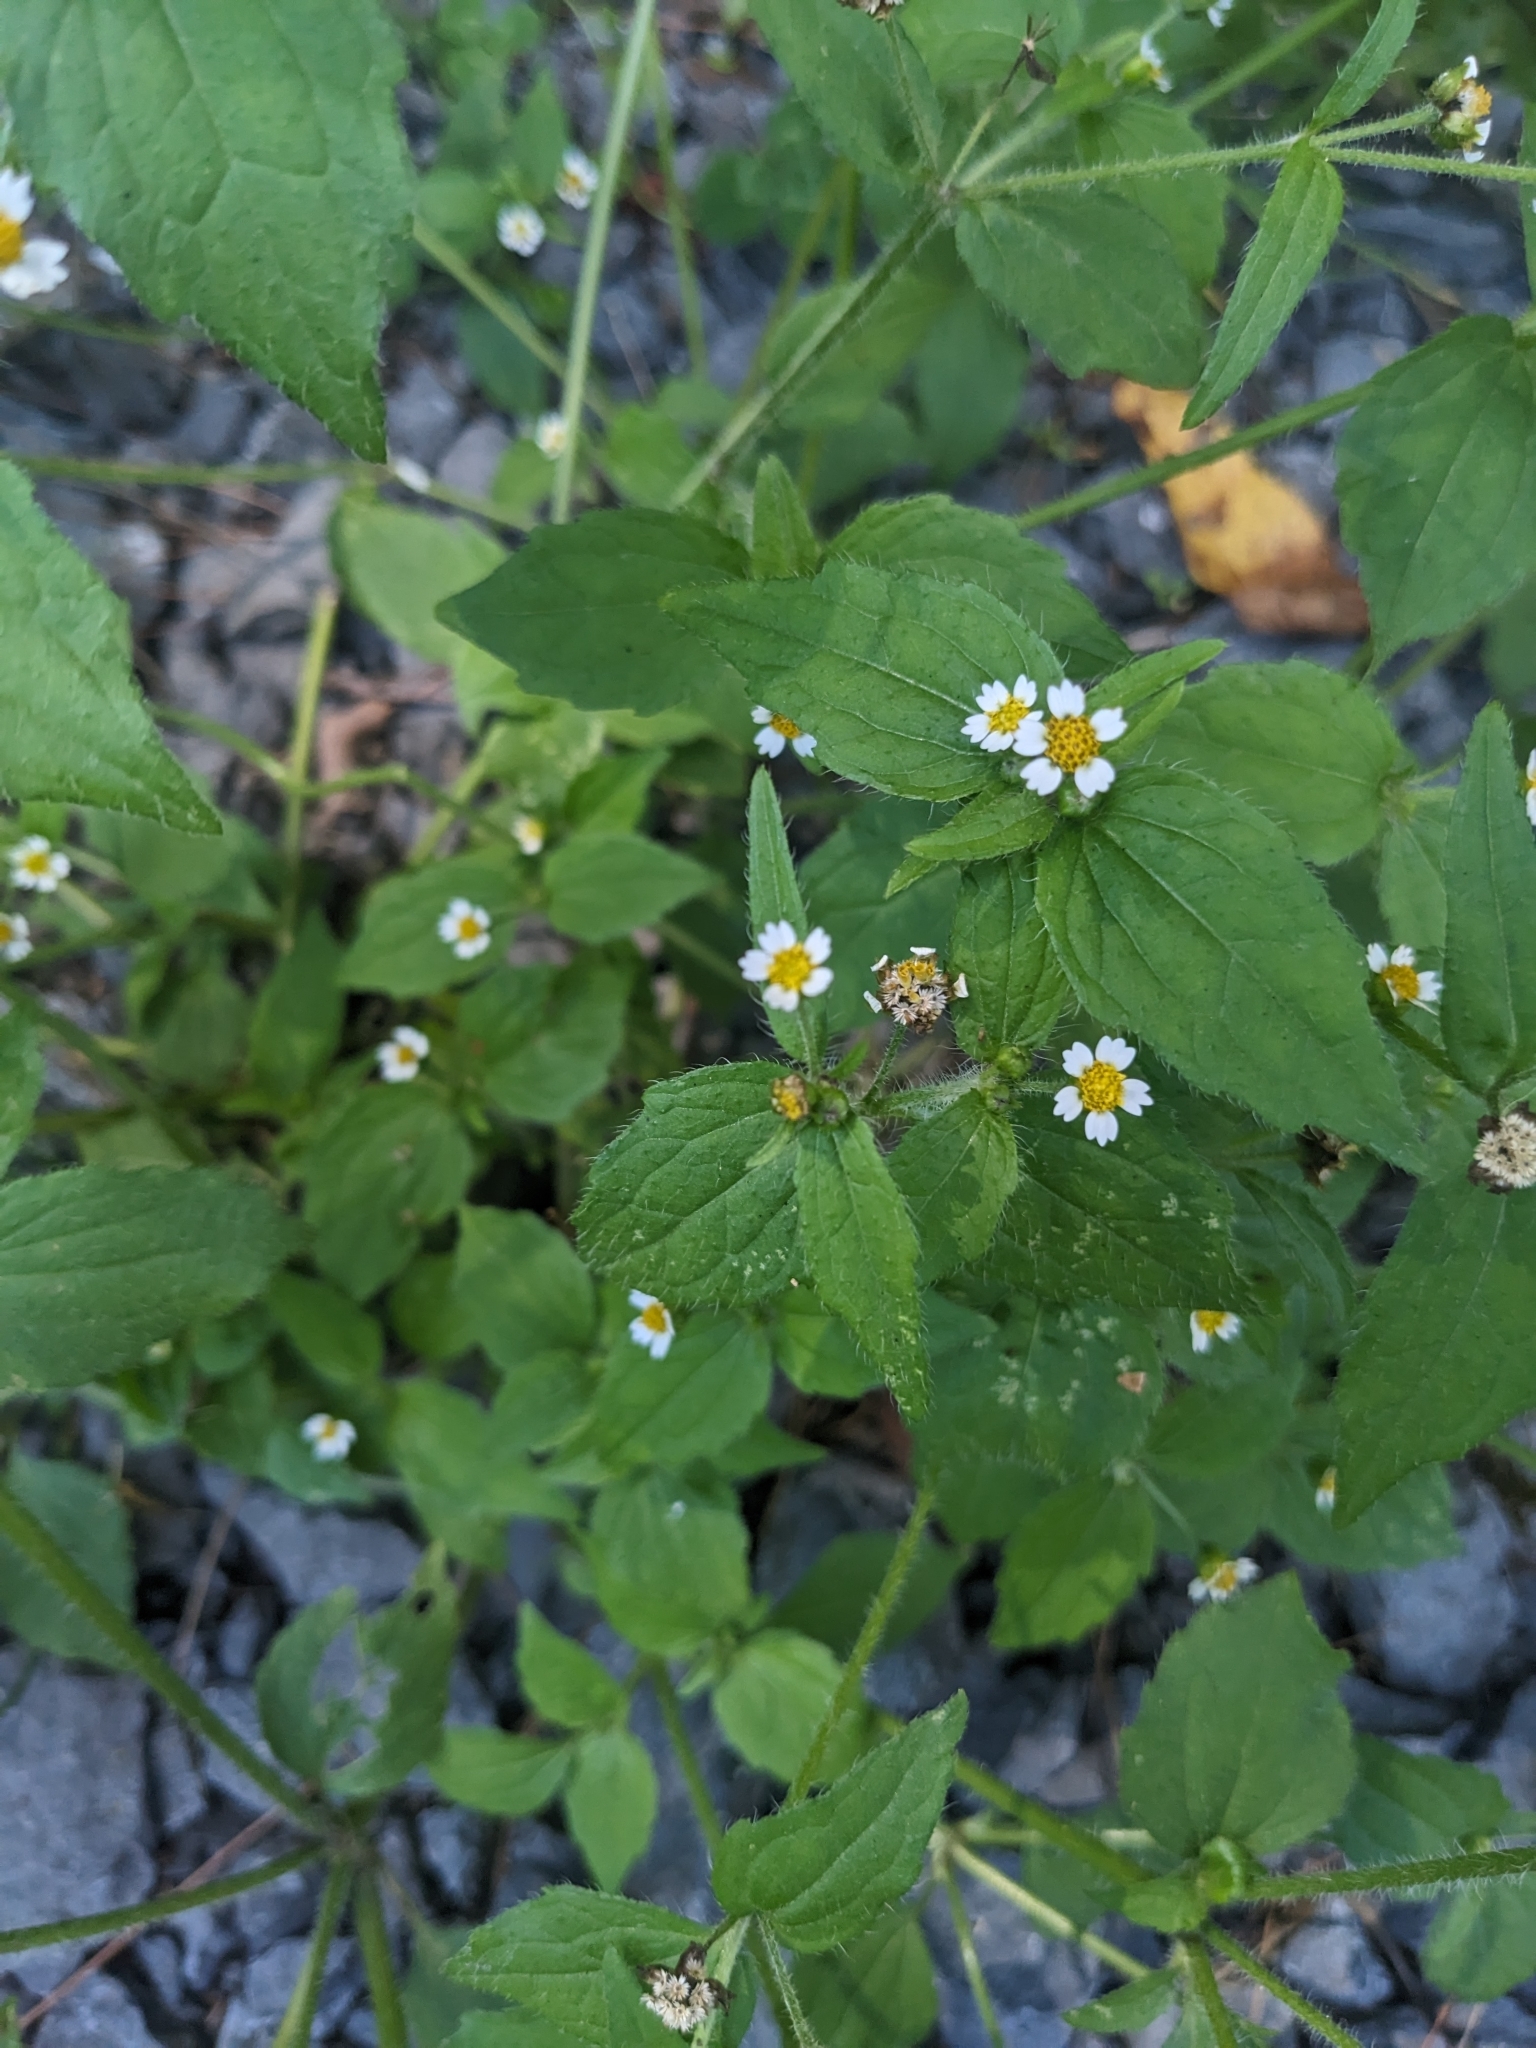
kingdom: Plantae
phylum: Tracheophyta
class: Magnoliopsida
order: Asterales
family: Asteraceae
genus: Galinsoga
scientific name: Galinsoga quadriradiata
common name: Shaggy soldier
